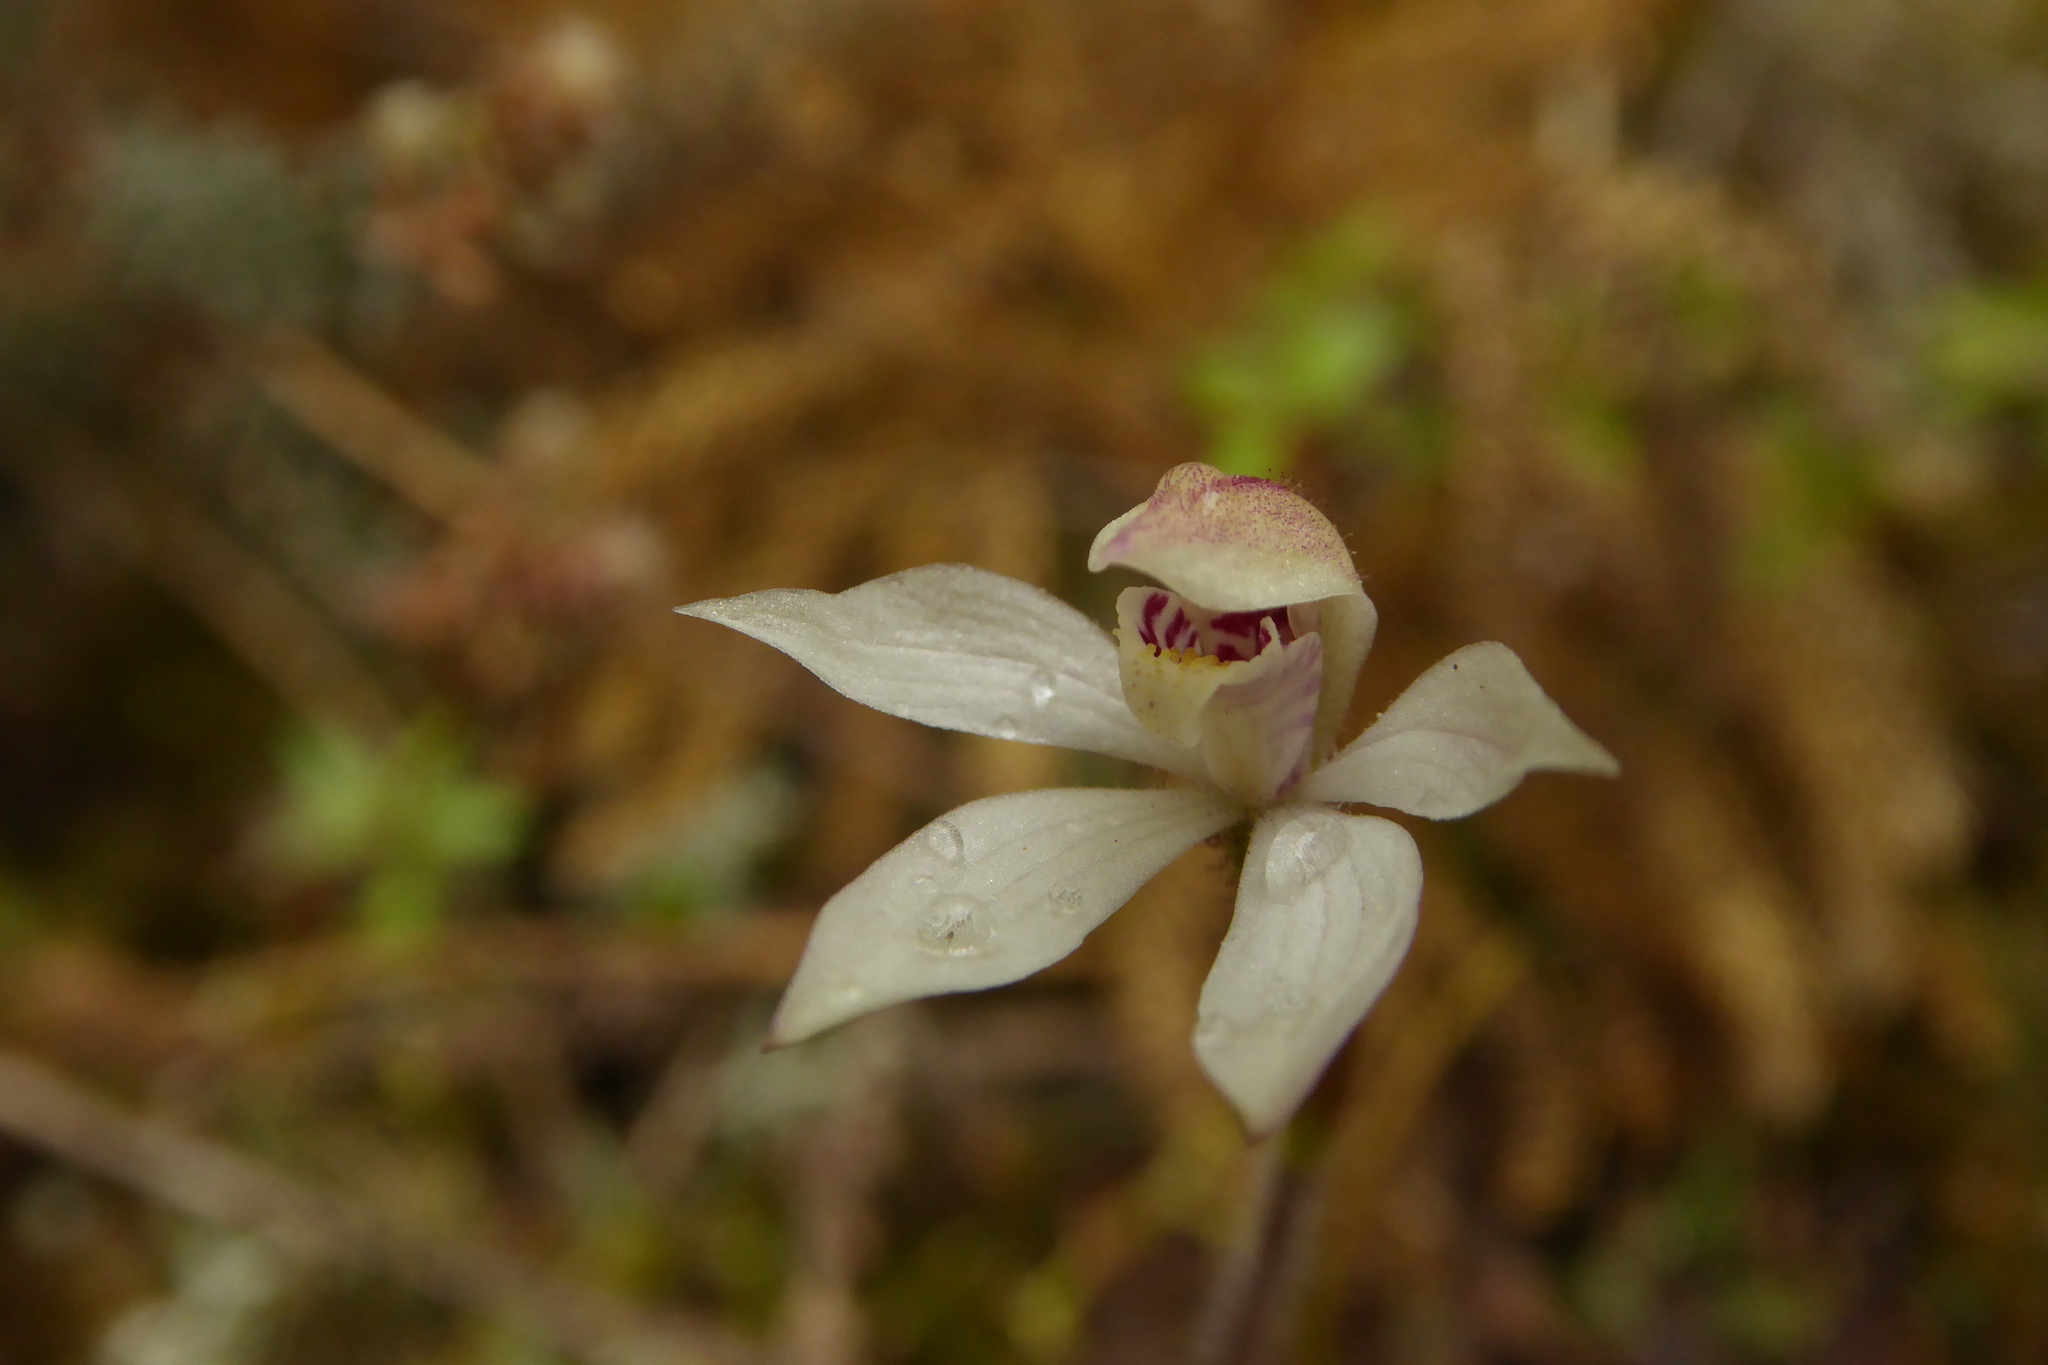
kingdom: Plantae
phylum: Tracheophyta
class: Liliopsida
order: Asparagales
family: Orchidaceae
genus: Caladenia
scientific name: Caladenia lyallii
